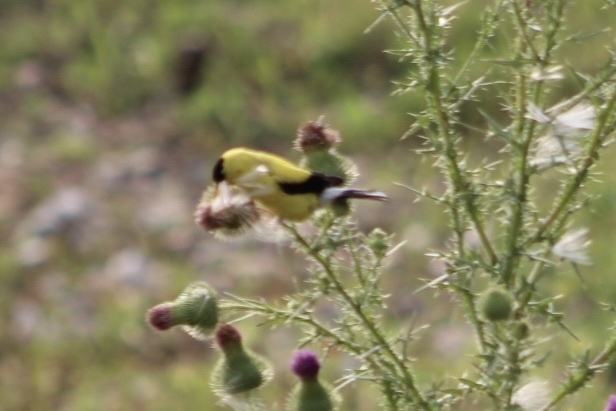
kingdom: Animalia
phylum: Chordata
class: Aves
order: Passeriformes
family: Fringillidae
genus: Spinus
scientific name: Spinus tristis
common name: American goldfinch
